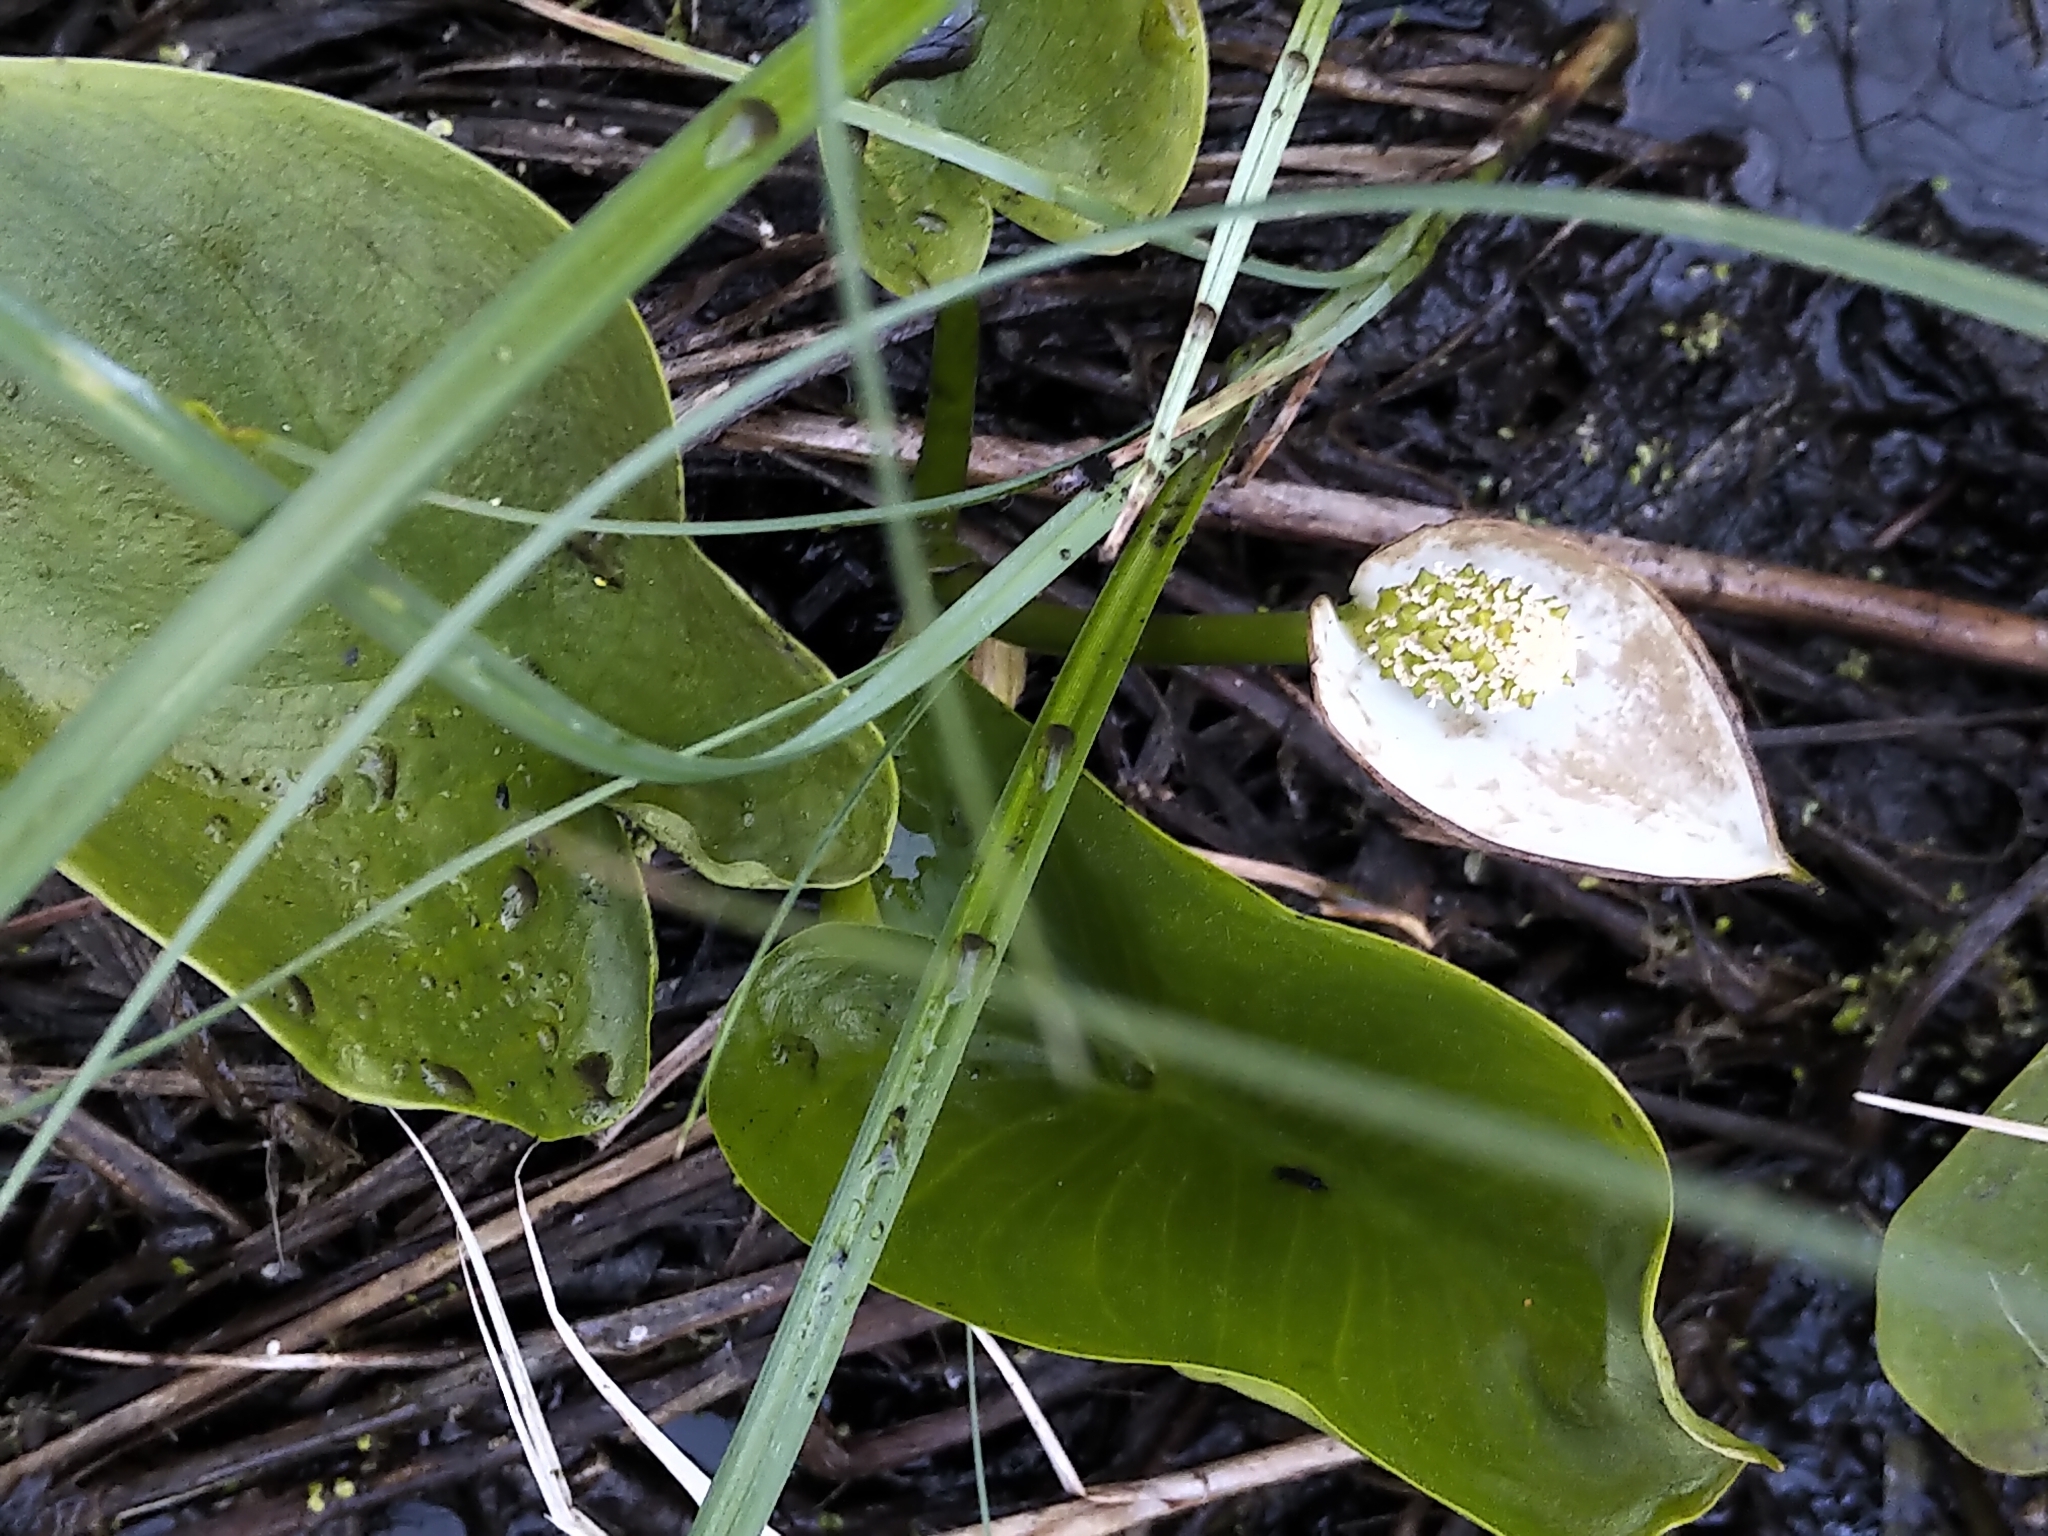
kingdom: Plantae
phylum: Tracheophyta
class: Liliopsida
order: Alismatales
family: Araceae
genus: Calla
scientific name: Calla palustris
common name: Bog arum
